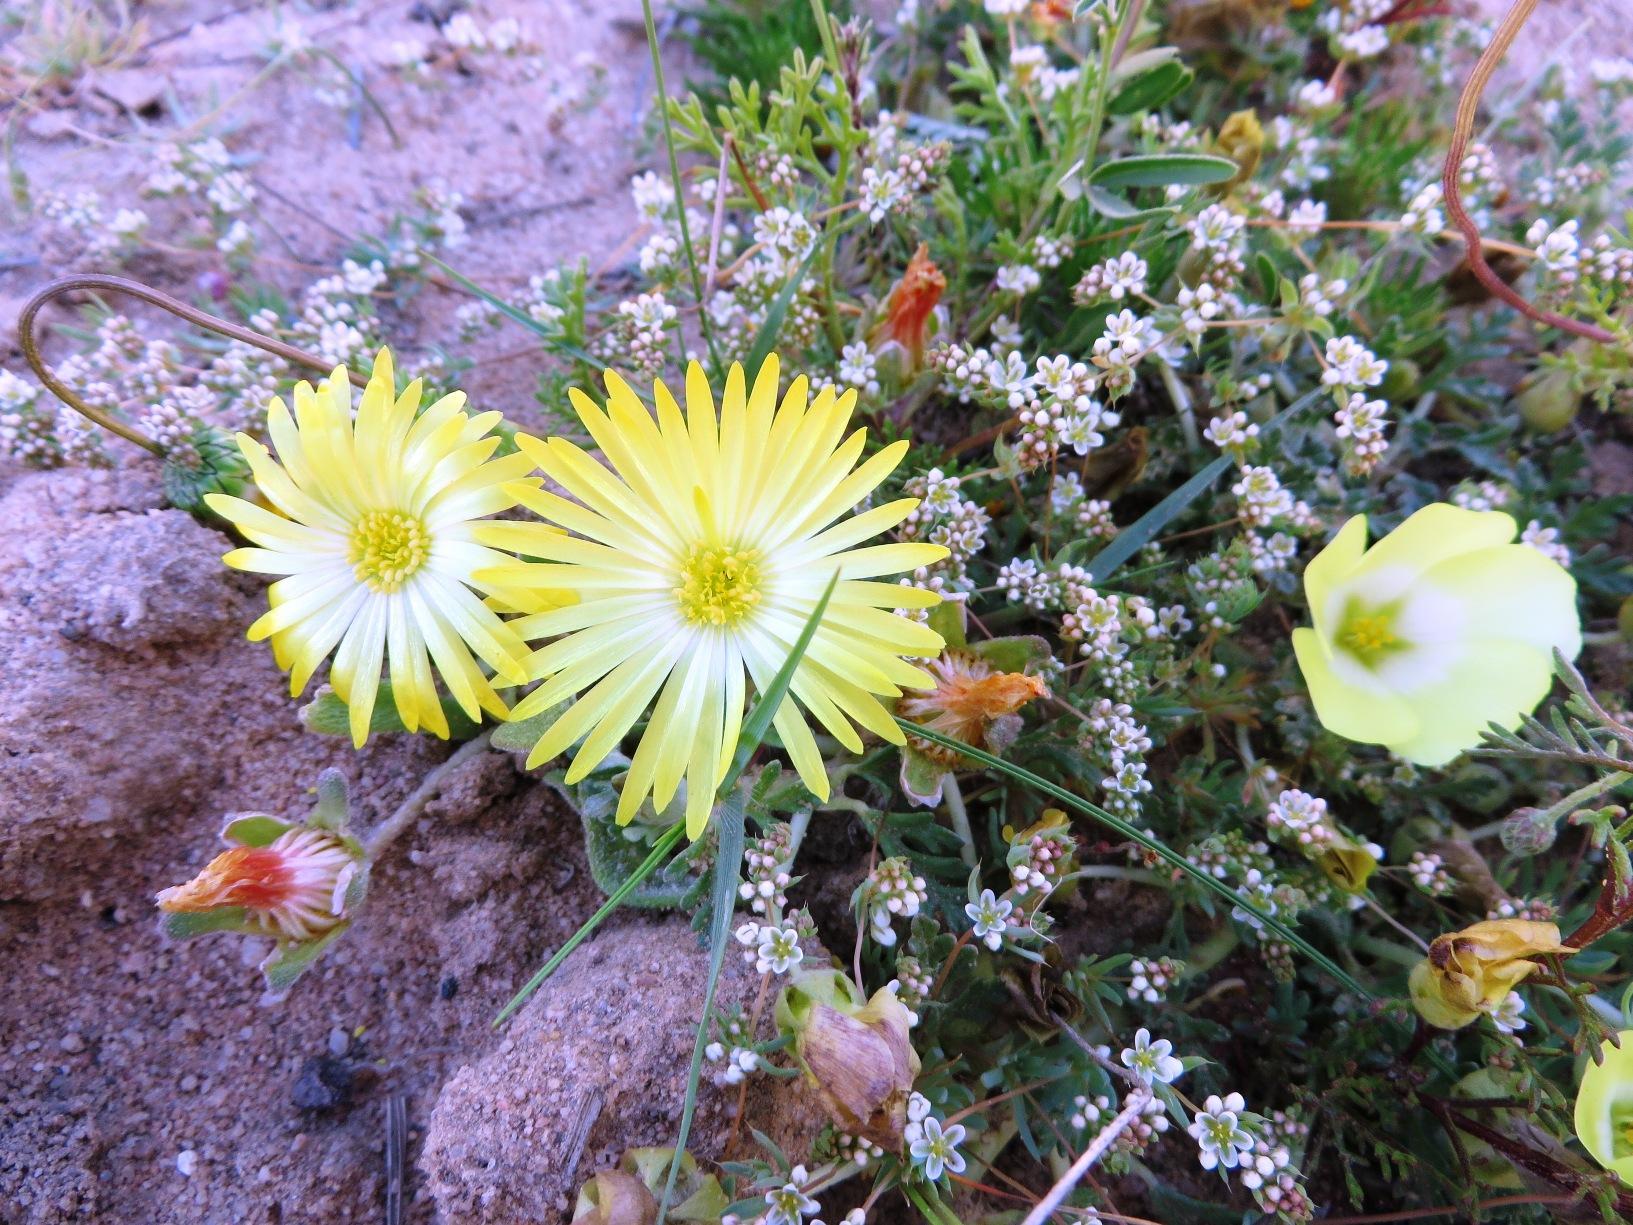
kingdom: Plantae
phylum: Tracheophyta
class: Magnoliopsida
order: Caryophyllales
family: Aizoaceae
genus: Cleretum
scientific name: Cleretum bellidiforme
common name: Livingstone daisy
